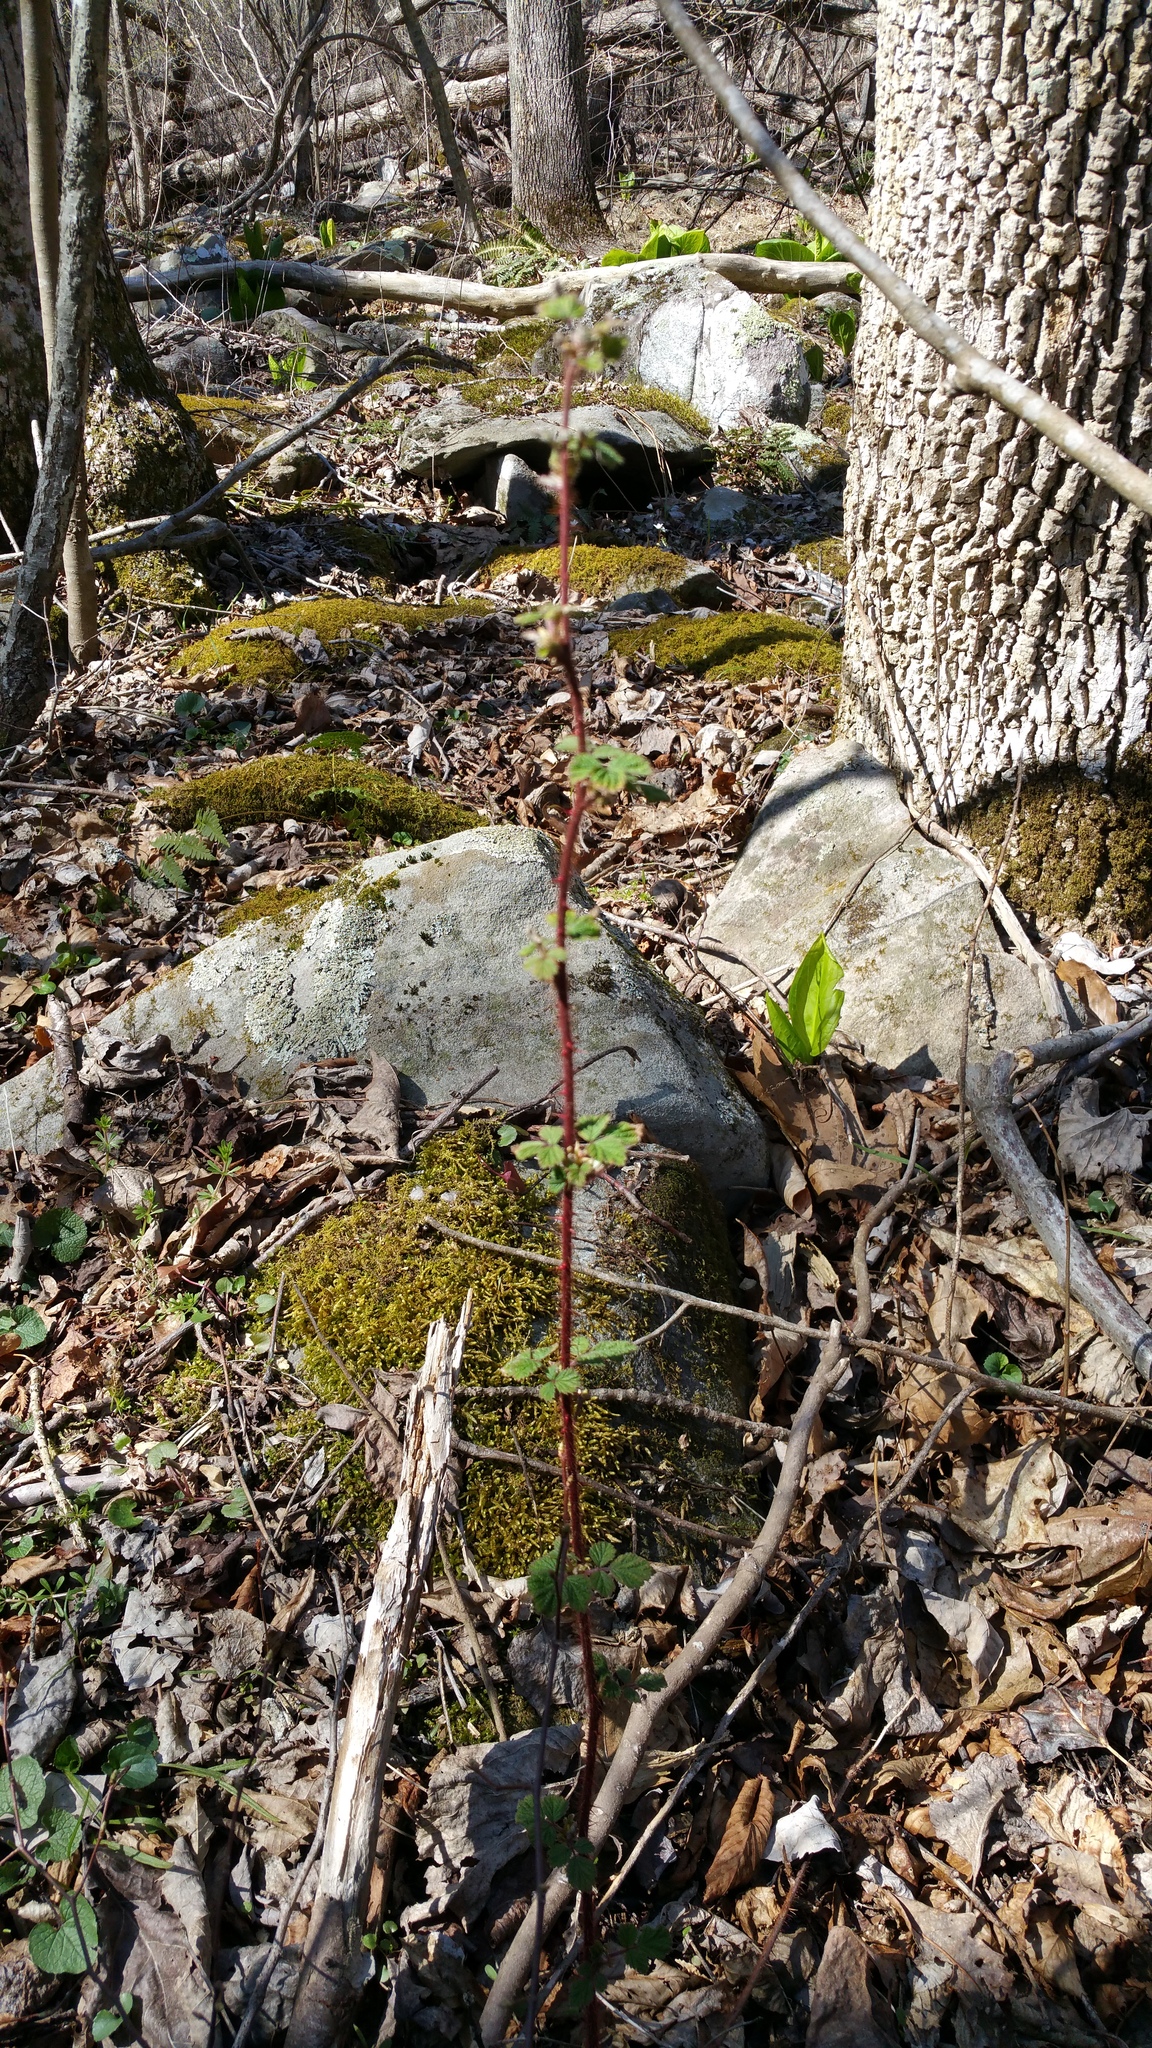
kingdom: Plantae
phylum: Tracheophyta
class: Magnoliopsida
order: Rosales
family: Rosaceae
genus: Rubus
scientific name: Rubus phoenicolasius
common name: Japanese wineberry
